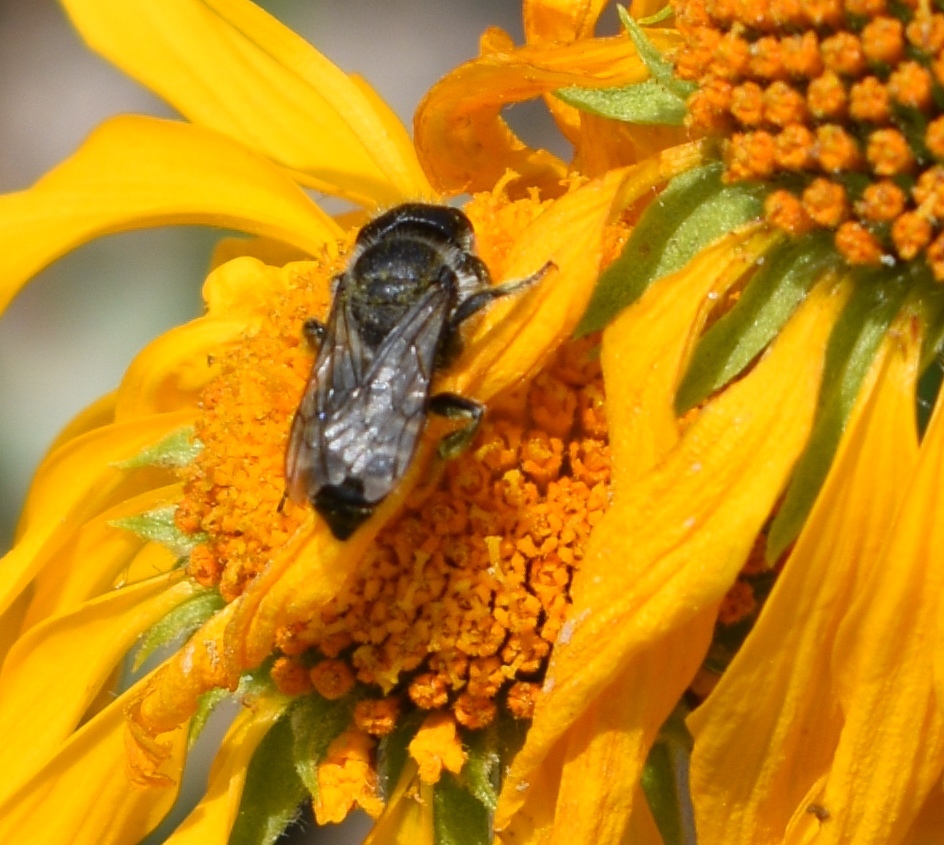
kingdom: Animalia
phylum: Arthropoda
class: Insecta
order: Hymenoptera
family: Megachilidae
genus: Megachile
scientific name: Megachile montivaga
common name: Silver-tailed petalcutter bee
